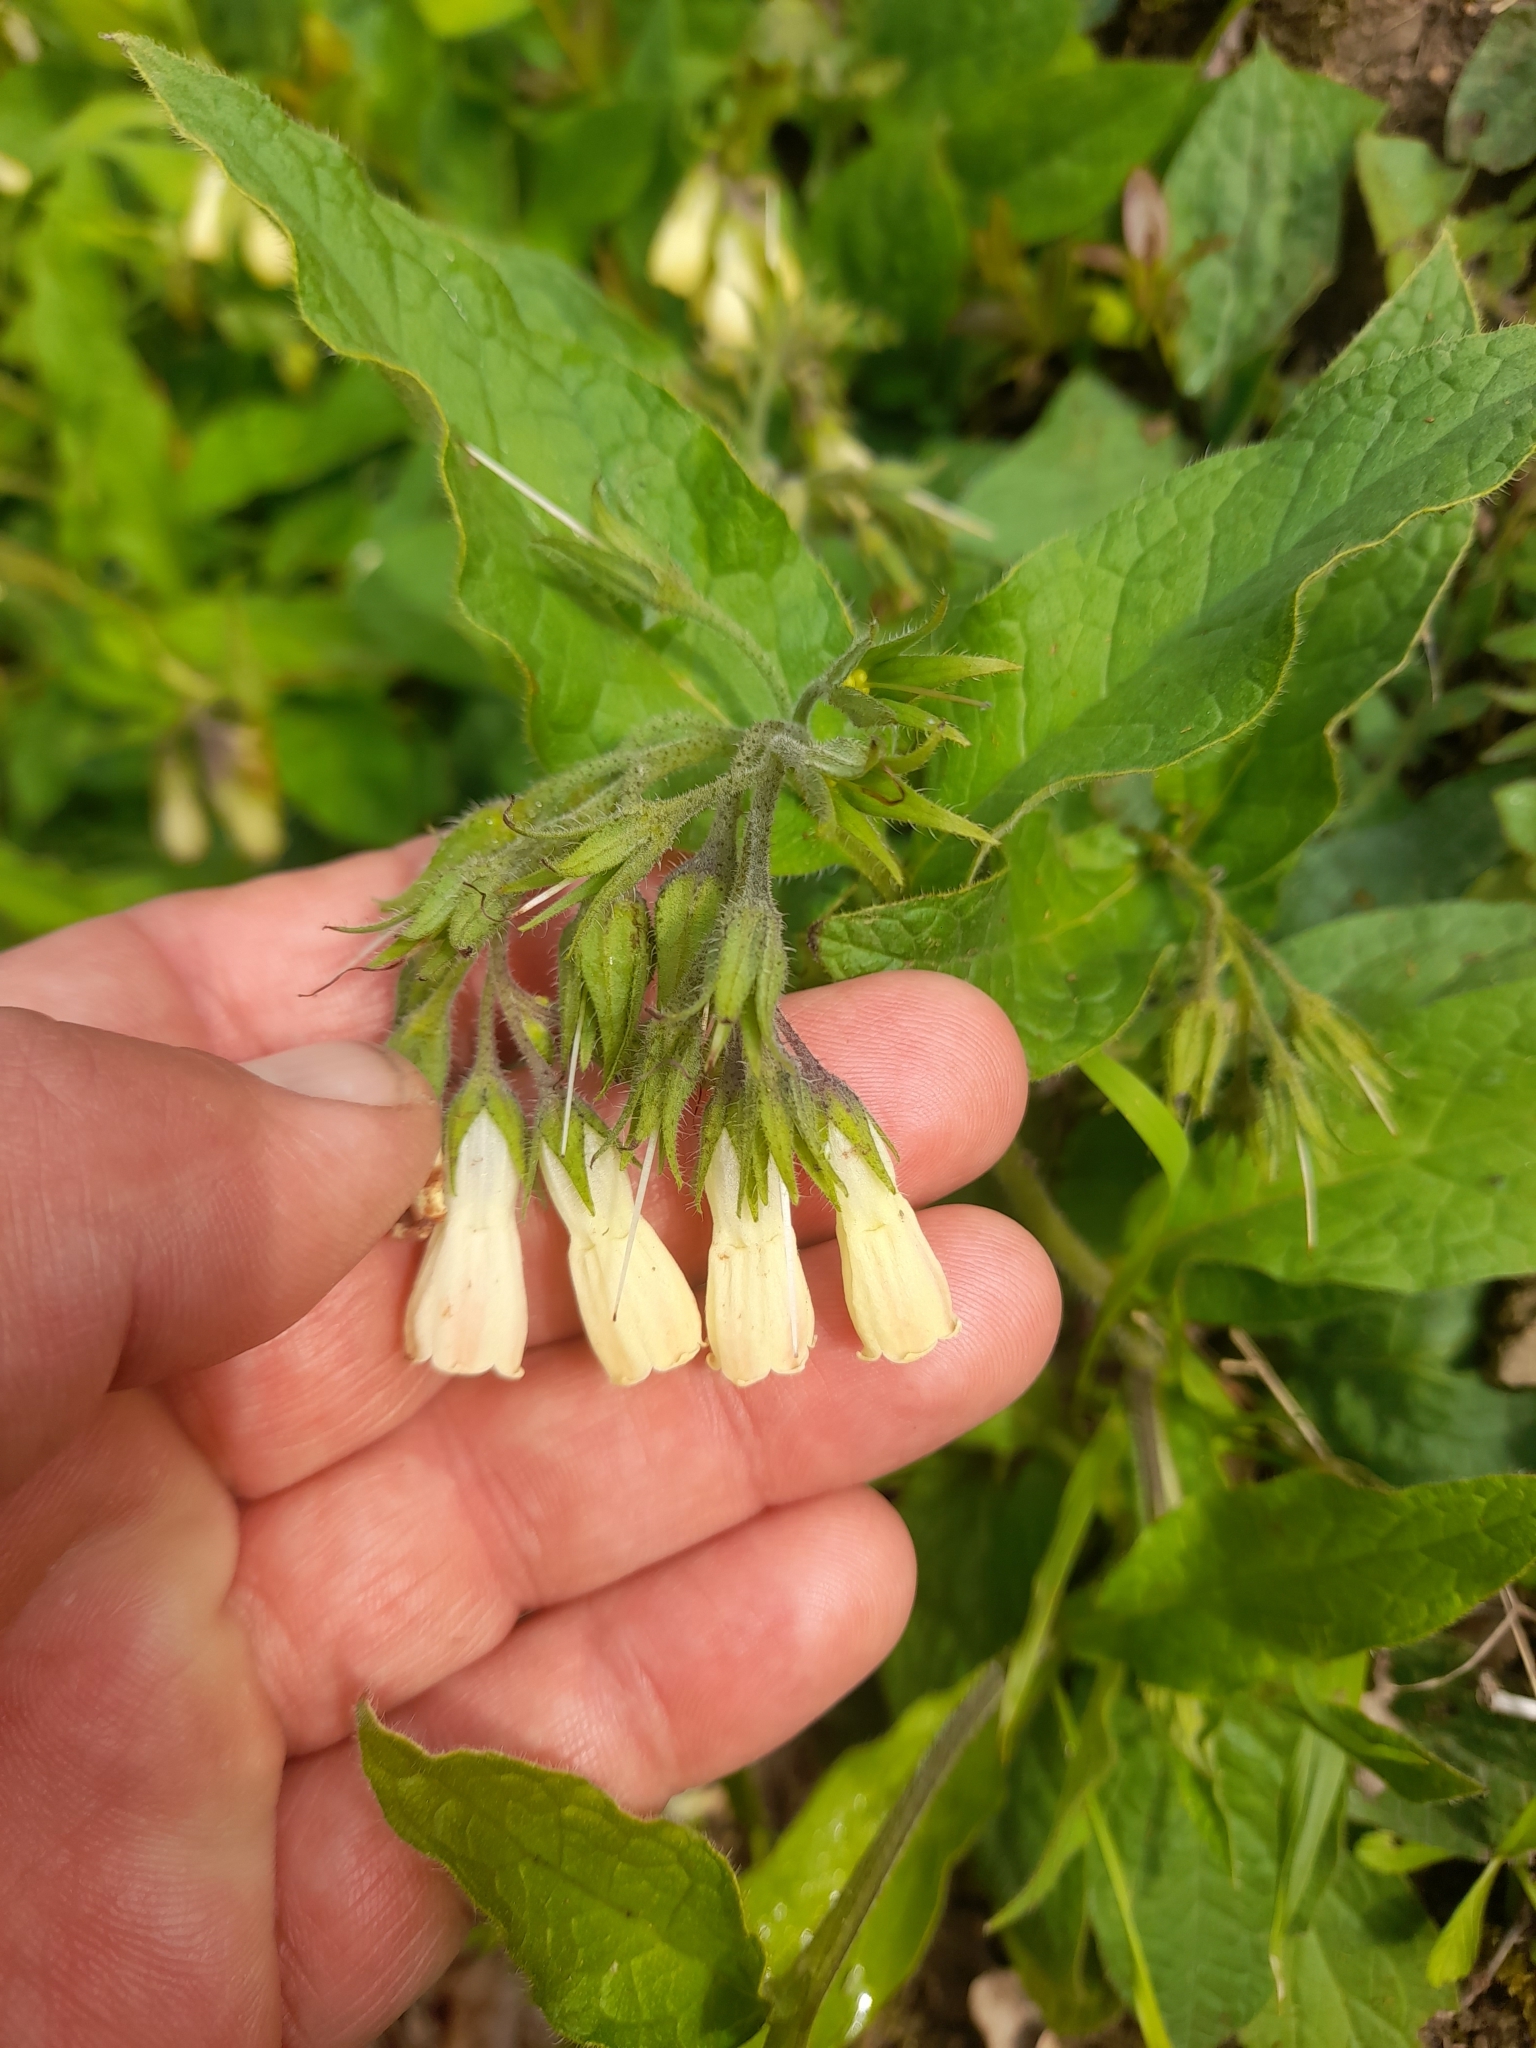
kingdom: Plantae
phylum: Tracheophyta
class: Magnoliopsida
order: Boraginales
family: Boraginaceae
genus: Symphytum
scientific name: Symphytum tuberosum
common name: Tuberous comfrey
